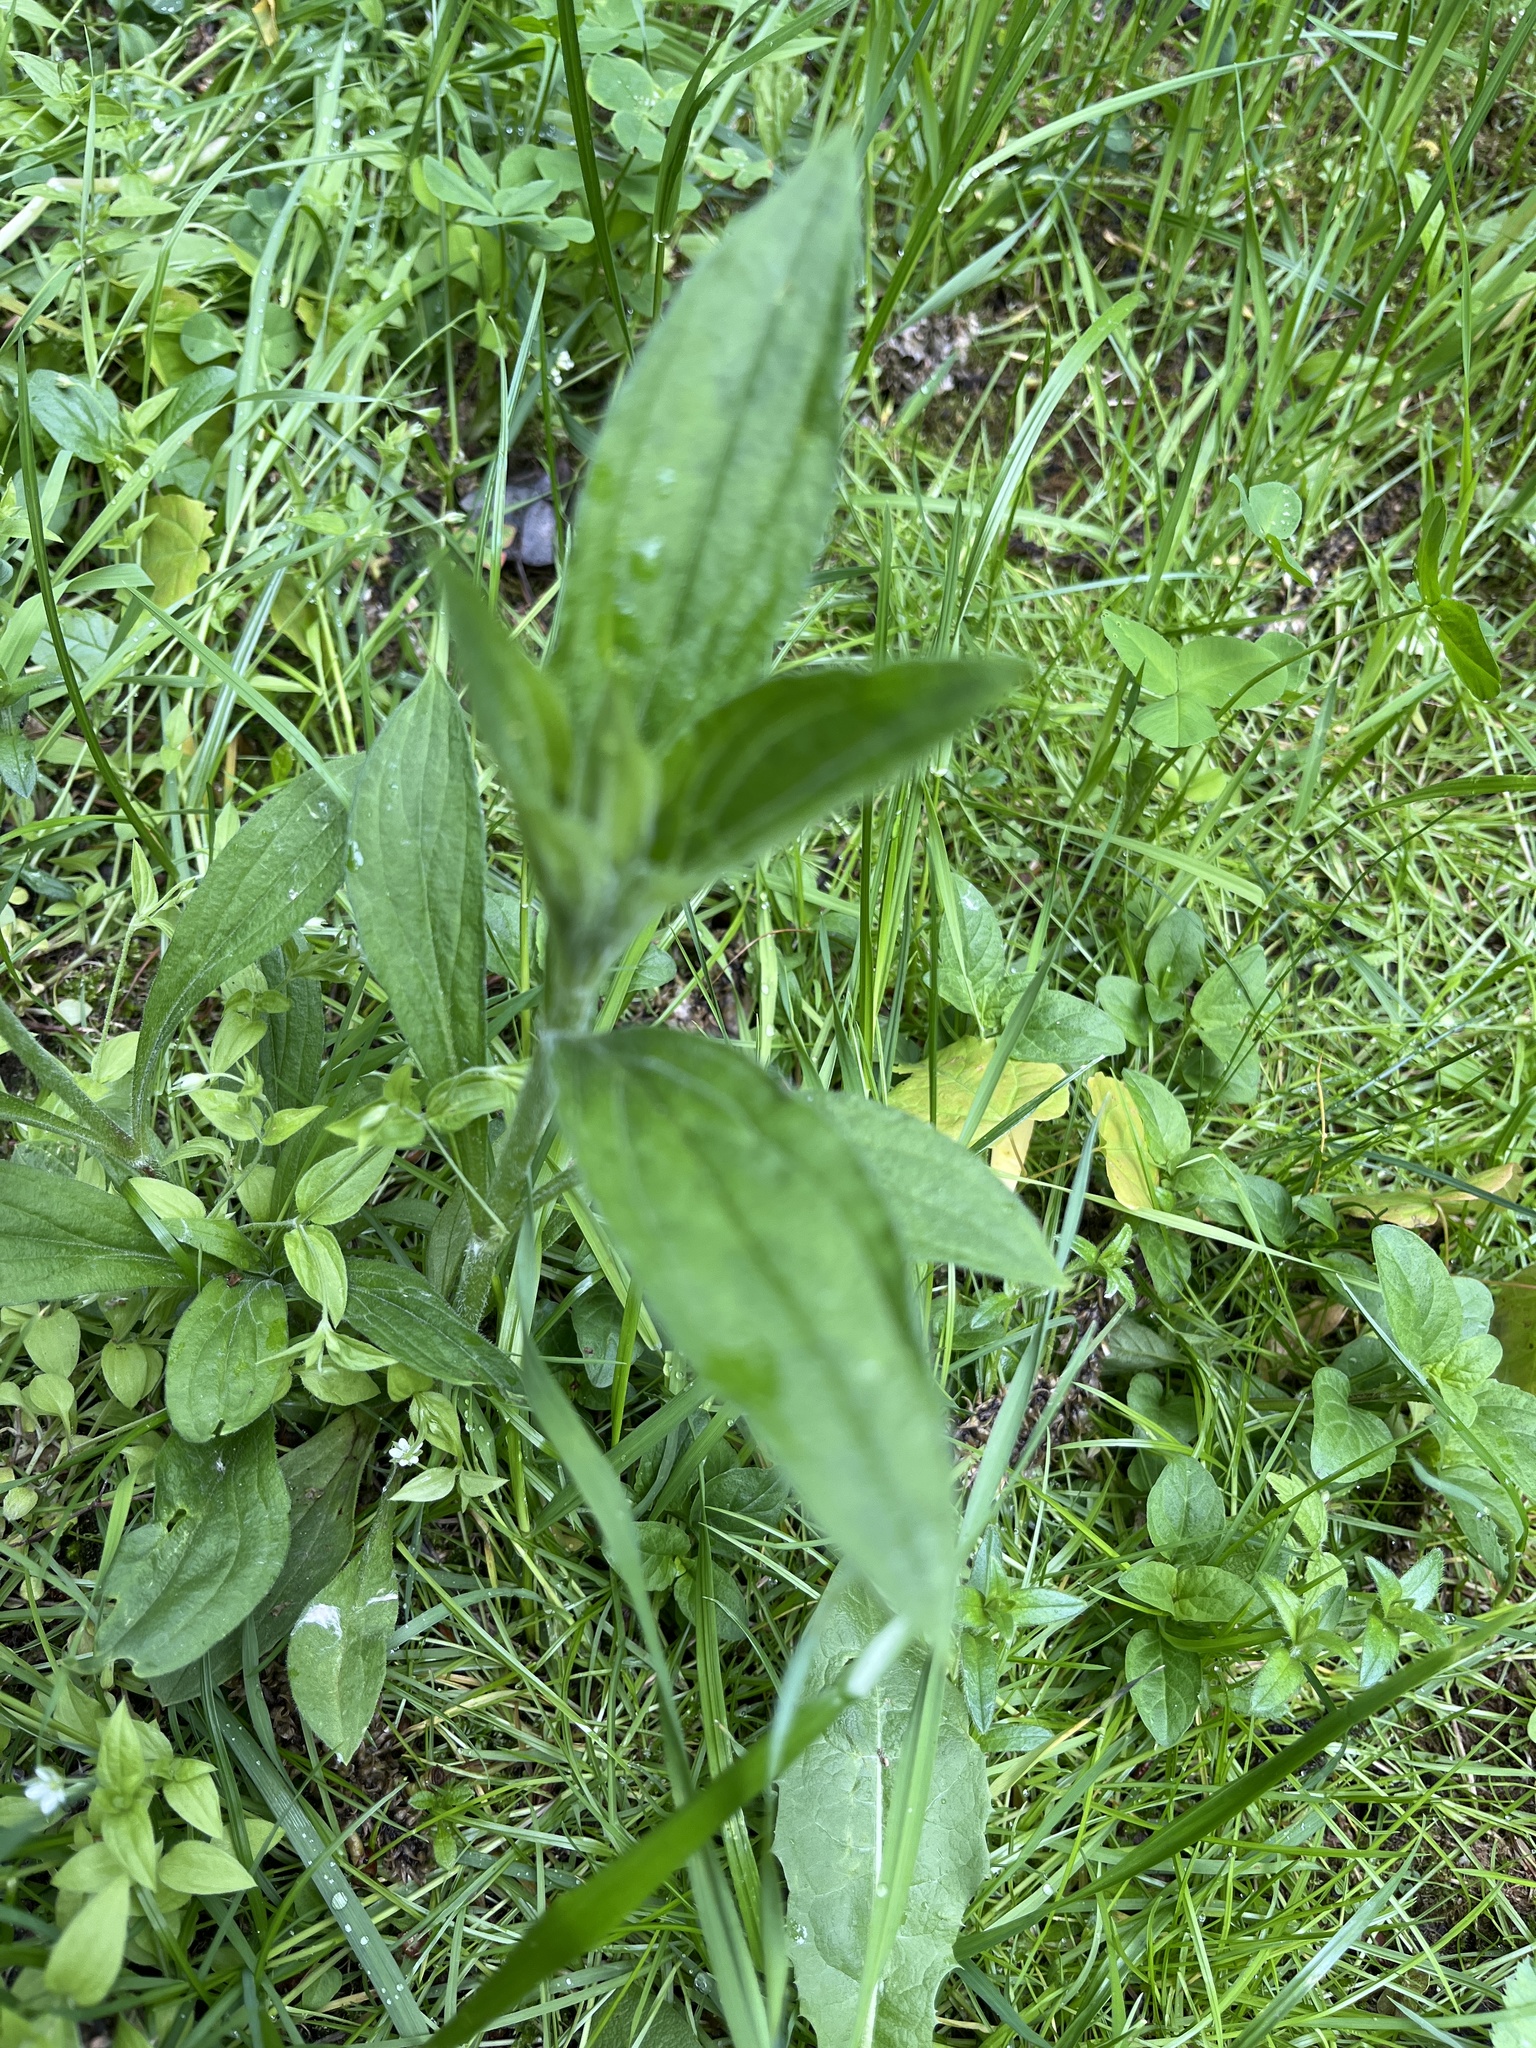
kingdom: Plantae
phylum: Tracheophyta
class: Magnoliopsida
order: Caryophyllales
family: Caryophyllaceae
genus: Silene
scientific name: Silene latifolia
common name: White campion
